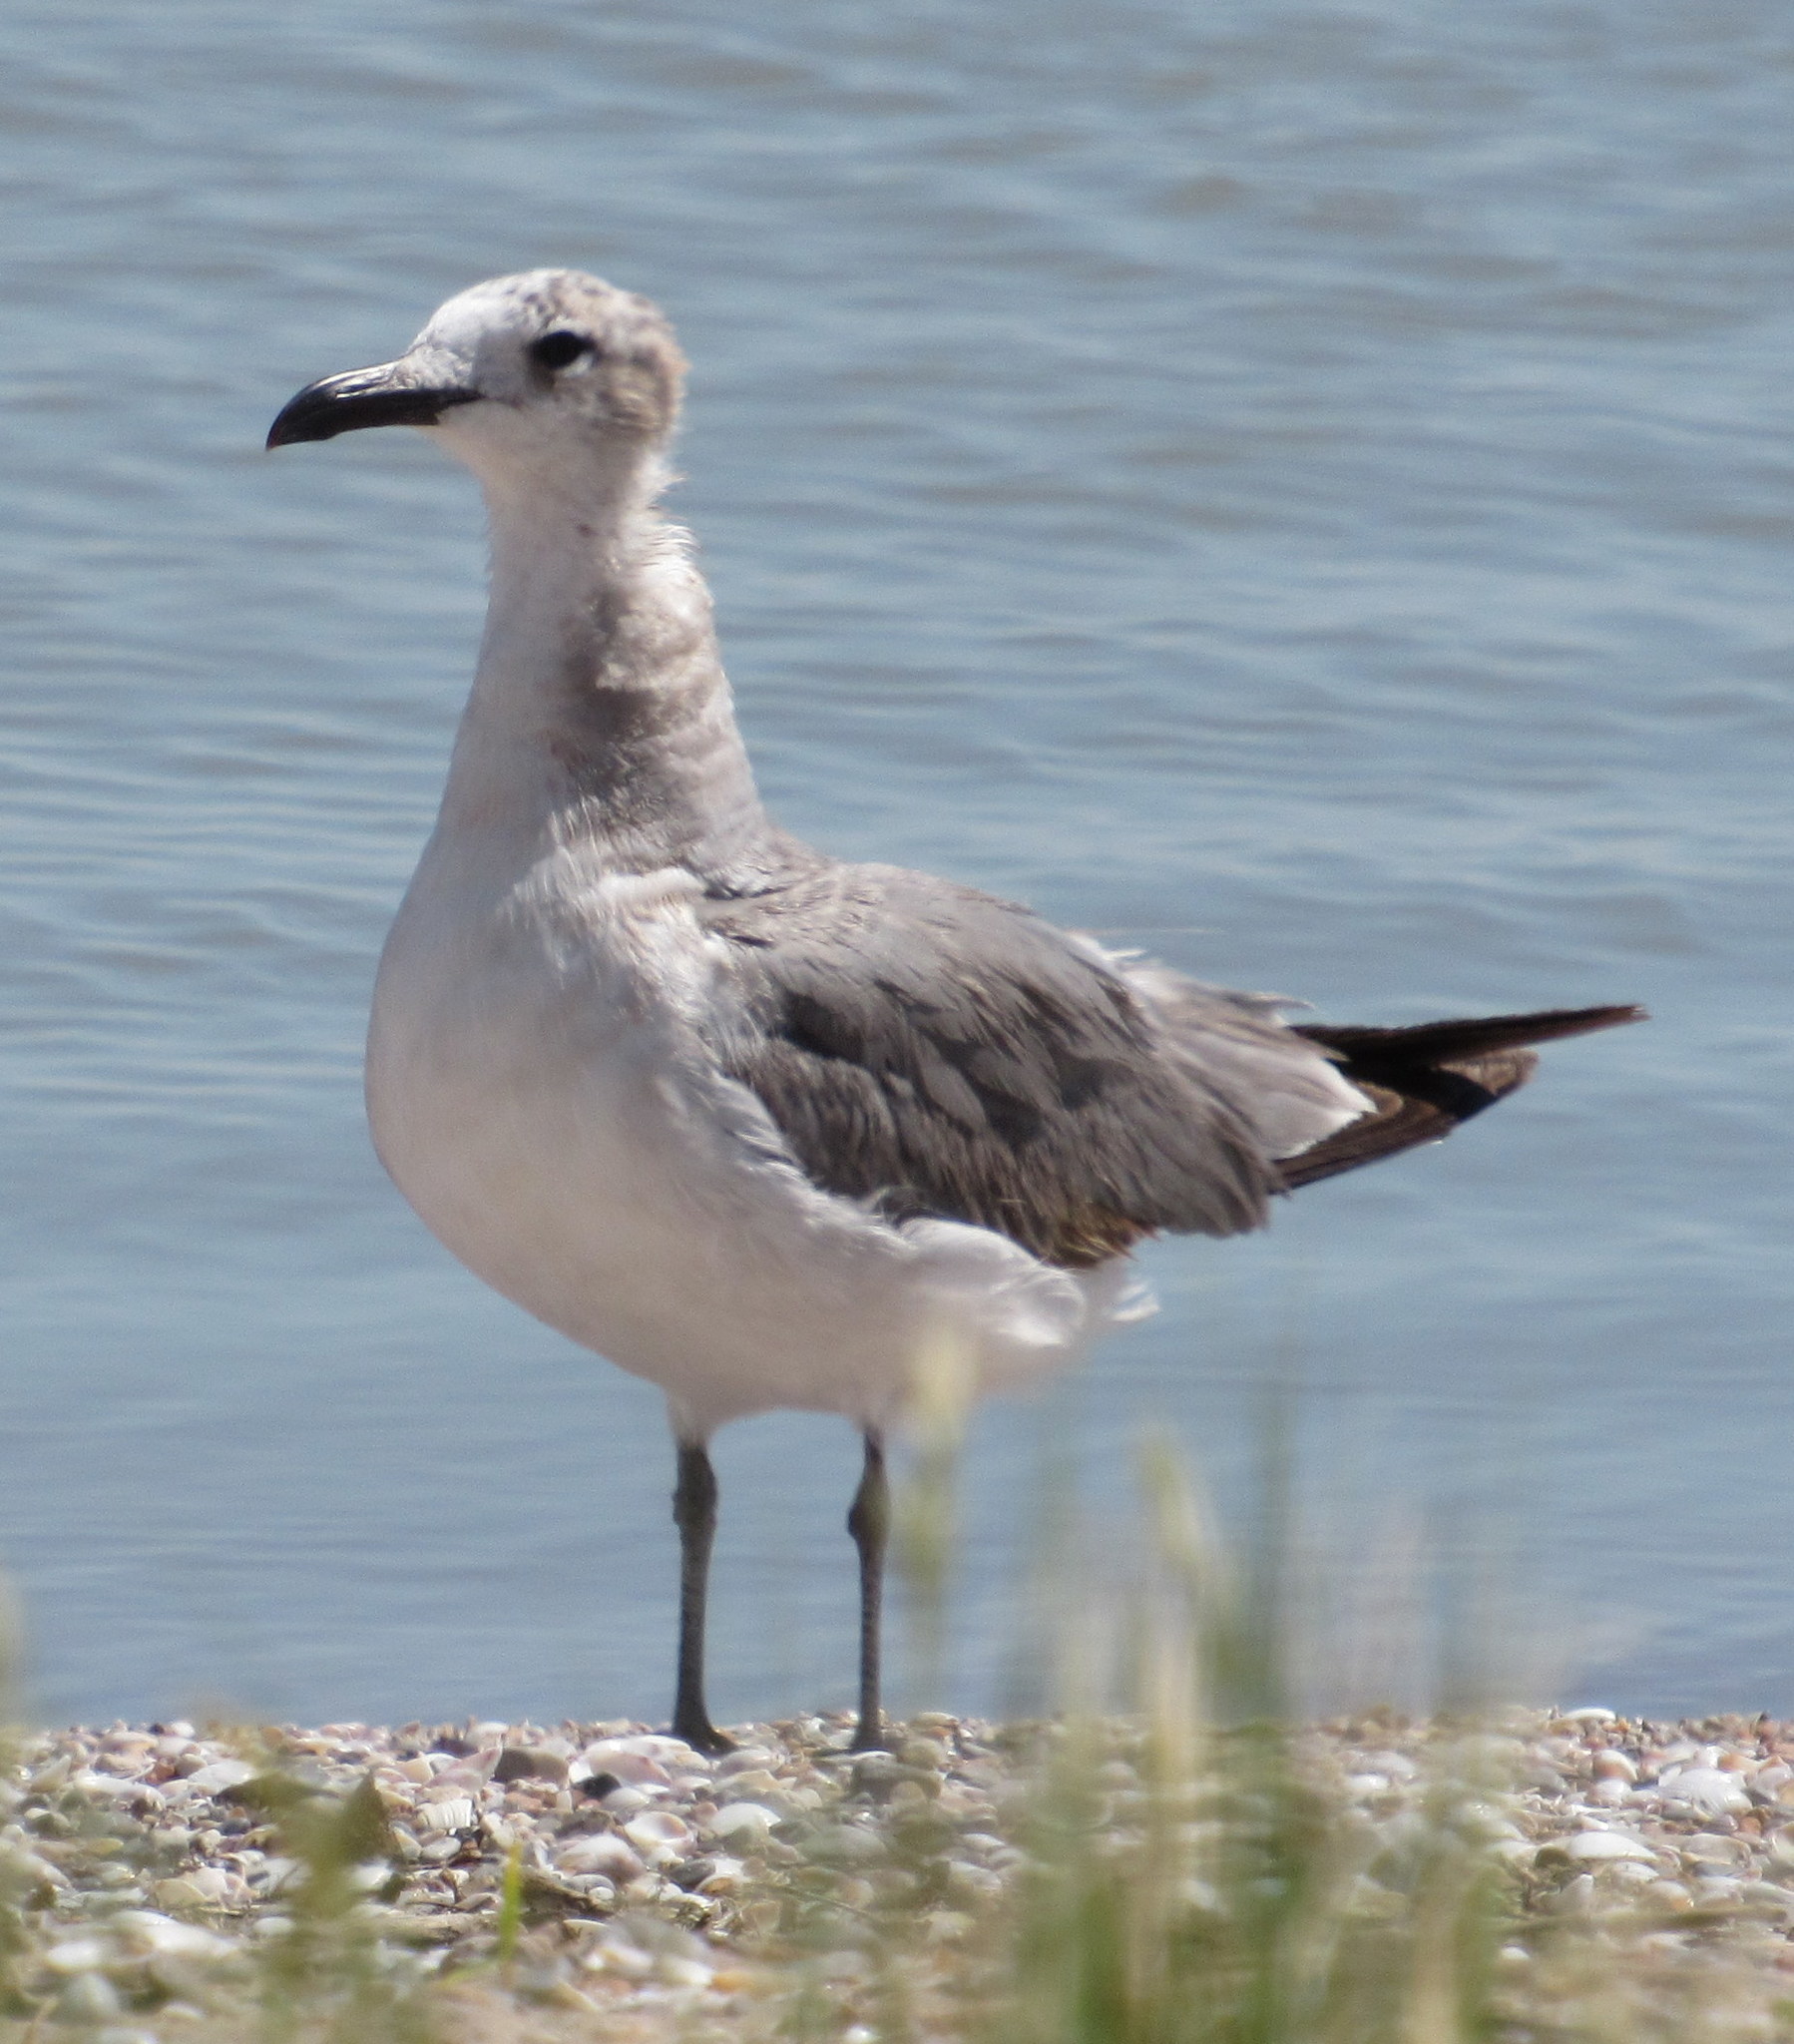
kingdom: Animalia
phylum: Chordata
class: Aves
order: Charadriiformes
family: Laridae
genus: Leucophaeus
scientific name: Leucophaeus atricilla
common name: Laughing gull
